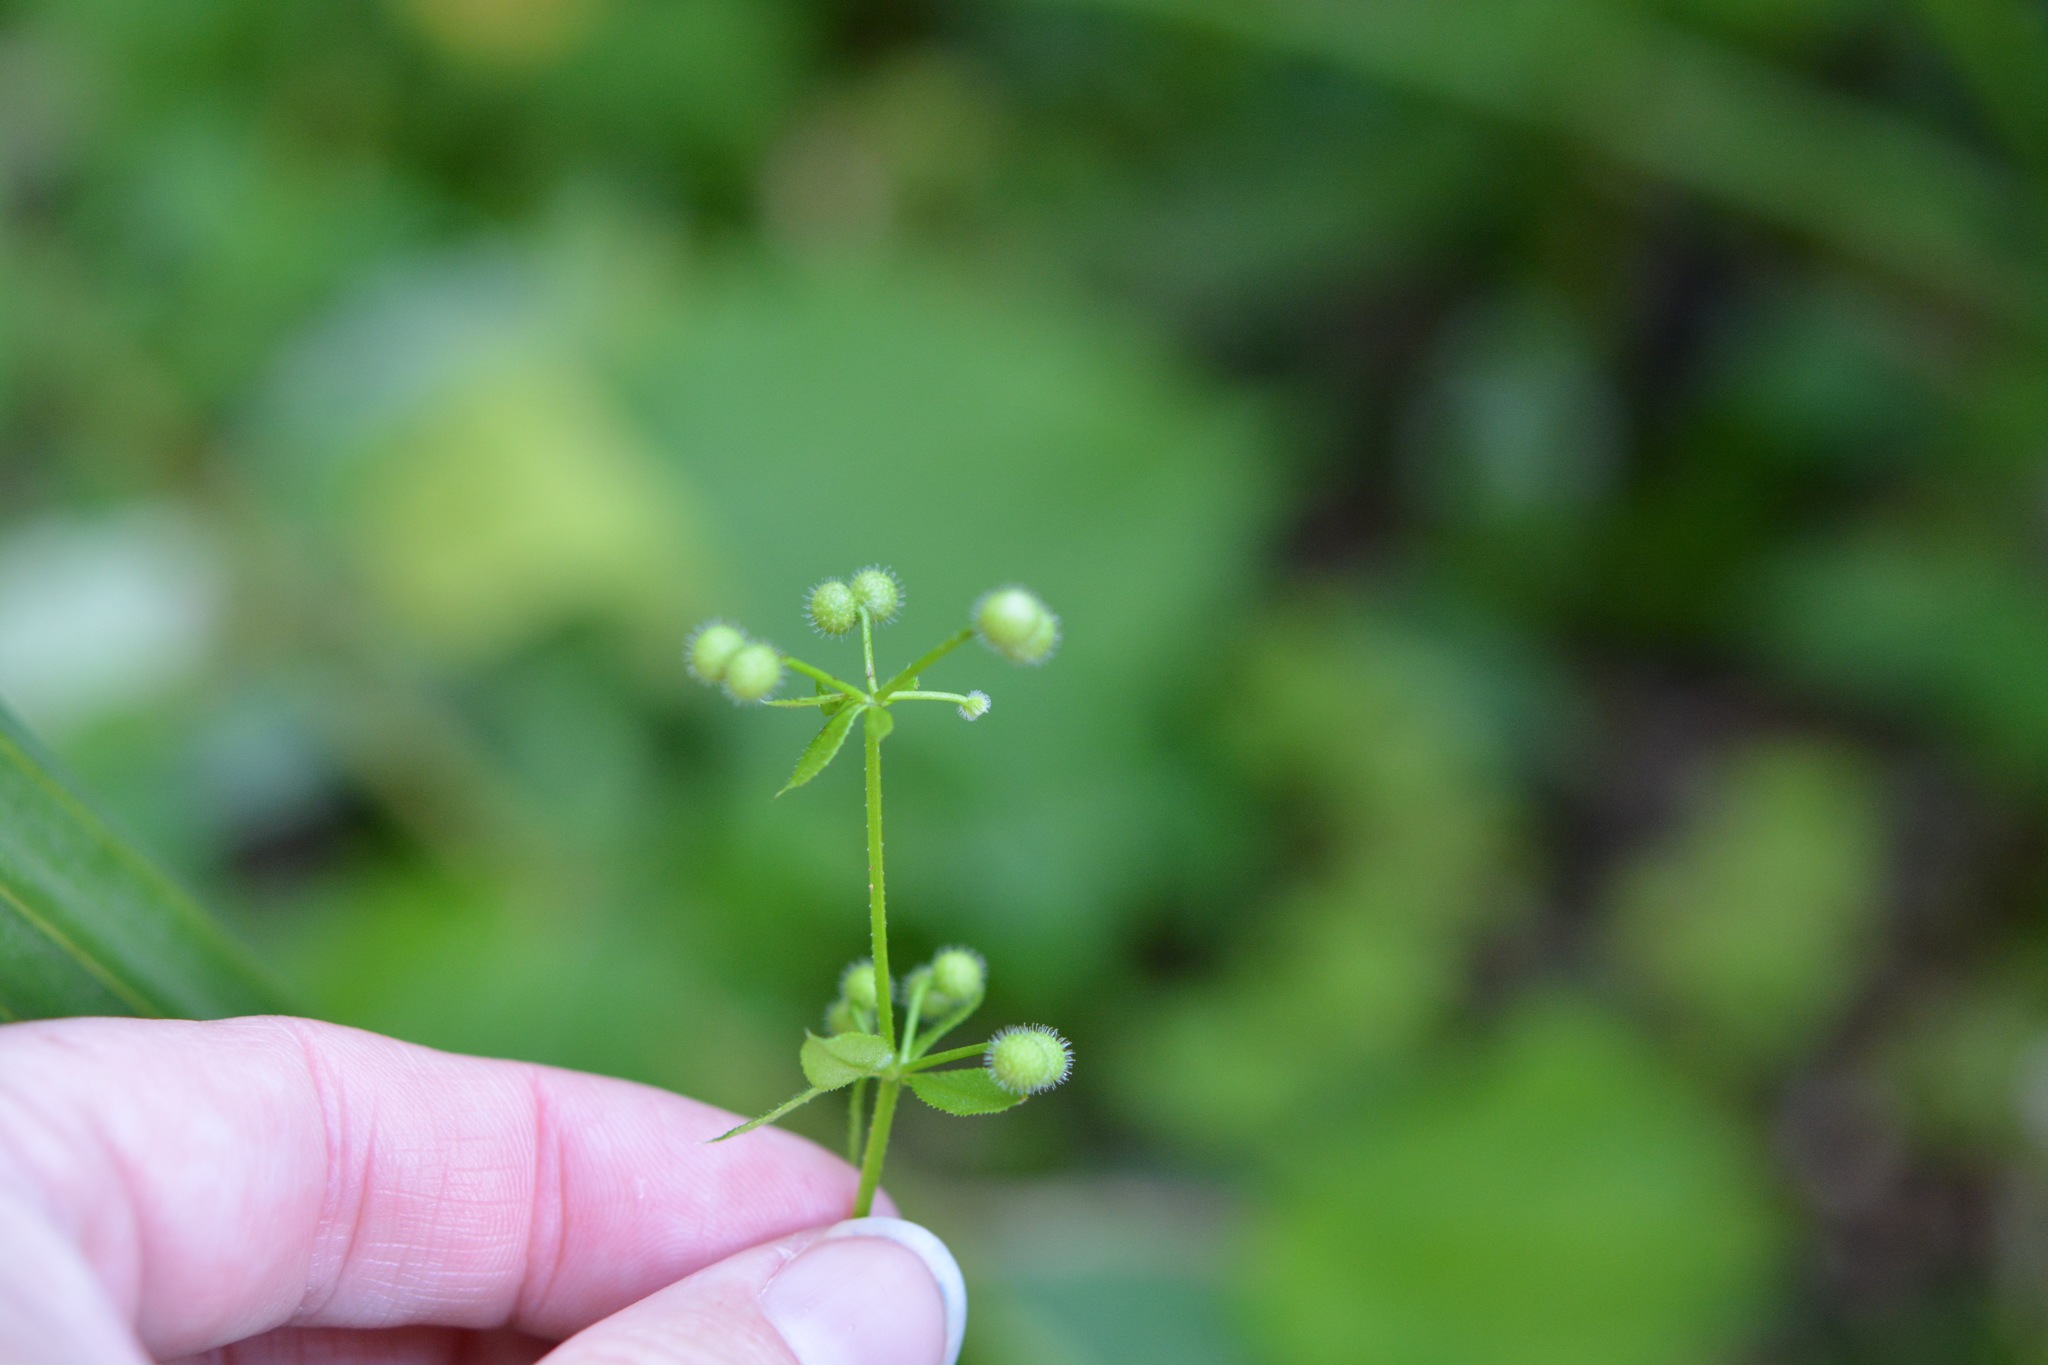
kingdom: Plantae
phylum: Tracheophyta
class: Magnoliopsida
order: Gentianales
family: Rubiaceae
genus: Galium
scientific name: Galium aparine
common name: Cleavers
